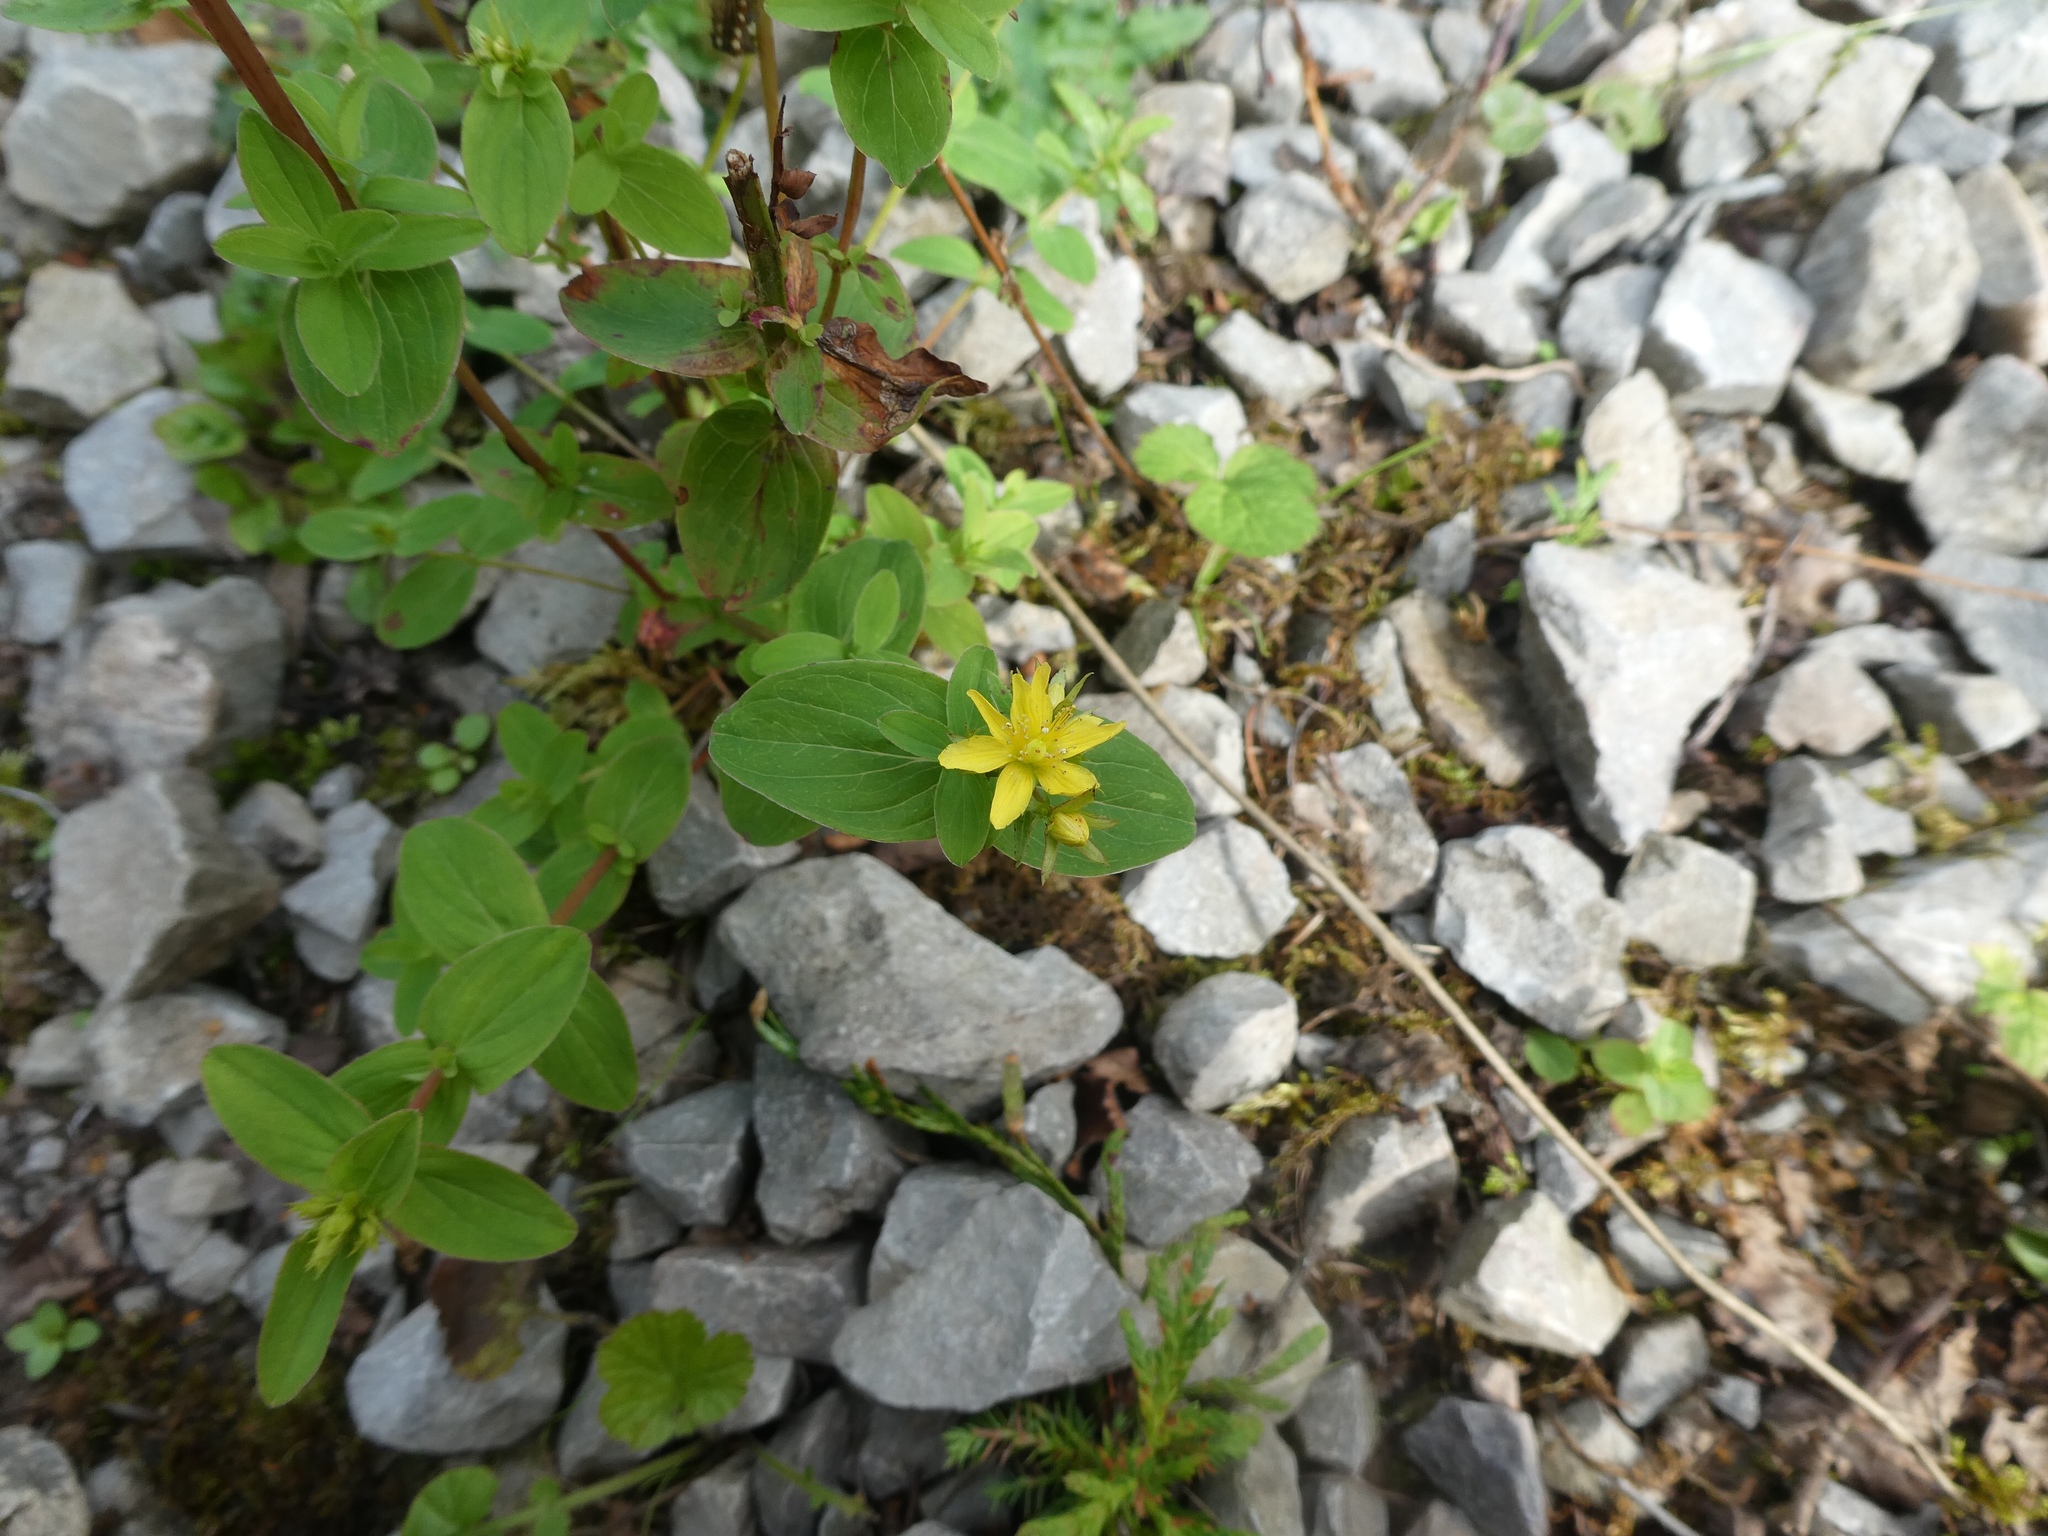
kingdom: Plantae
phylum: Tracheophyta
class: Magnoliopsida
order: Malpighiales
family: Hypericaceae
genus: Hypericum
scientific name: Hypericum tetrapterum
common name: Square-stalked st. john's-wort
